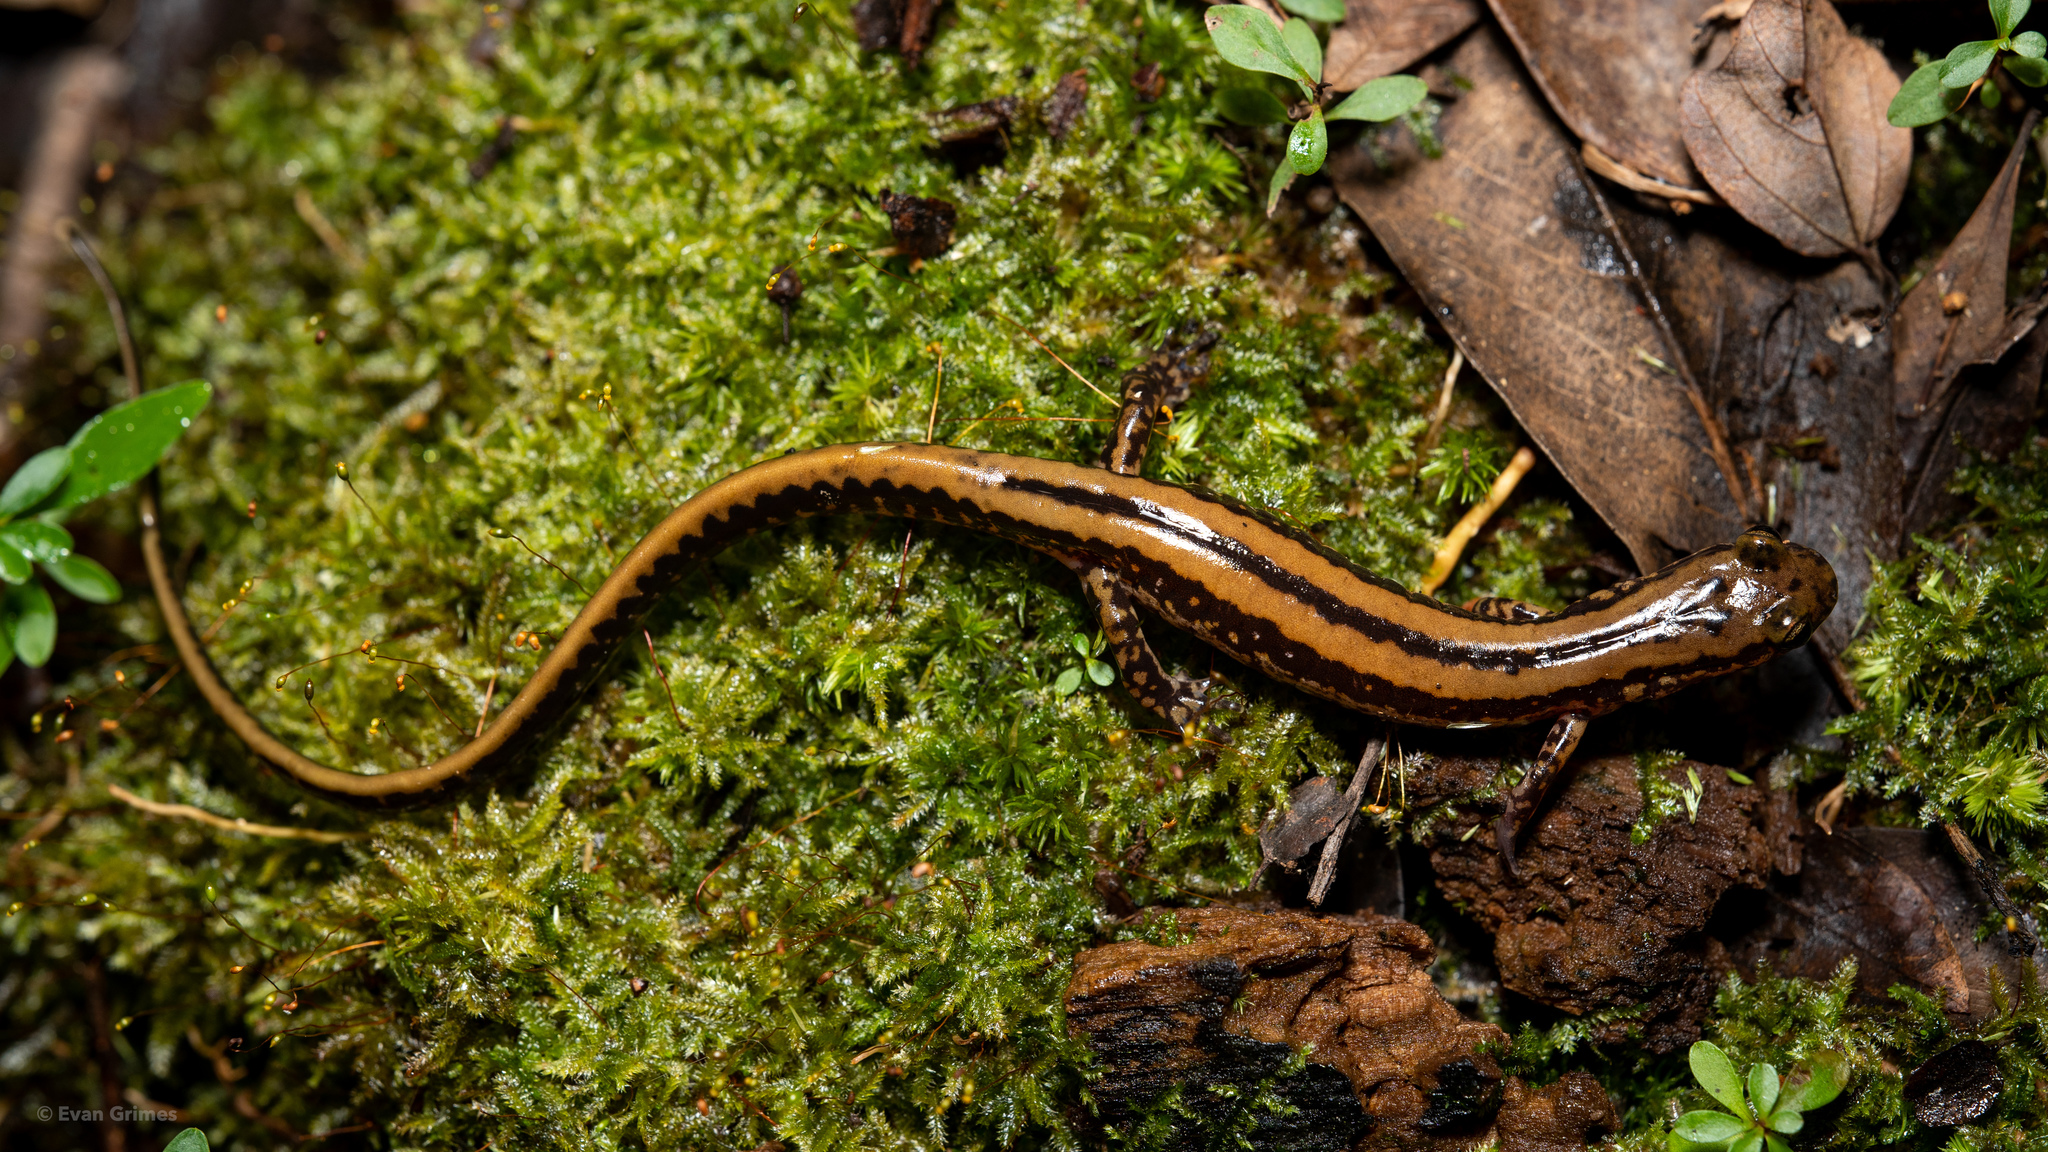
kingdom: Animalia
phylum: Chordata
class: Amphibia
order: Caudata
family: Plethodontidae
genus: Eurycea
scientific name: Eurycea guttolineata
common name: Three-lined salamander
